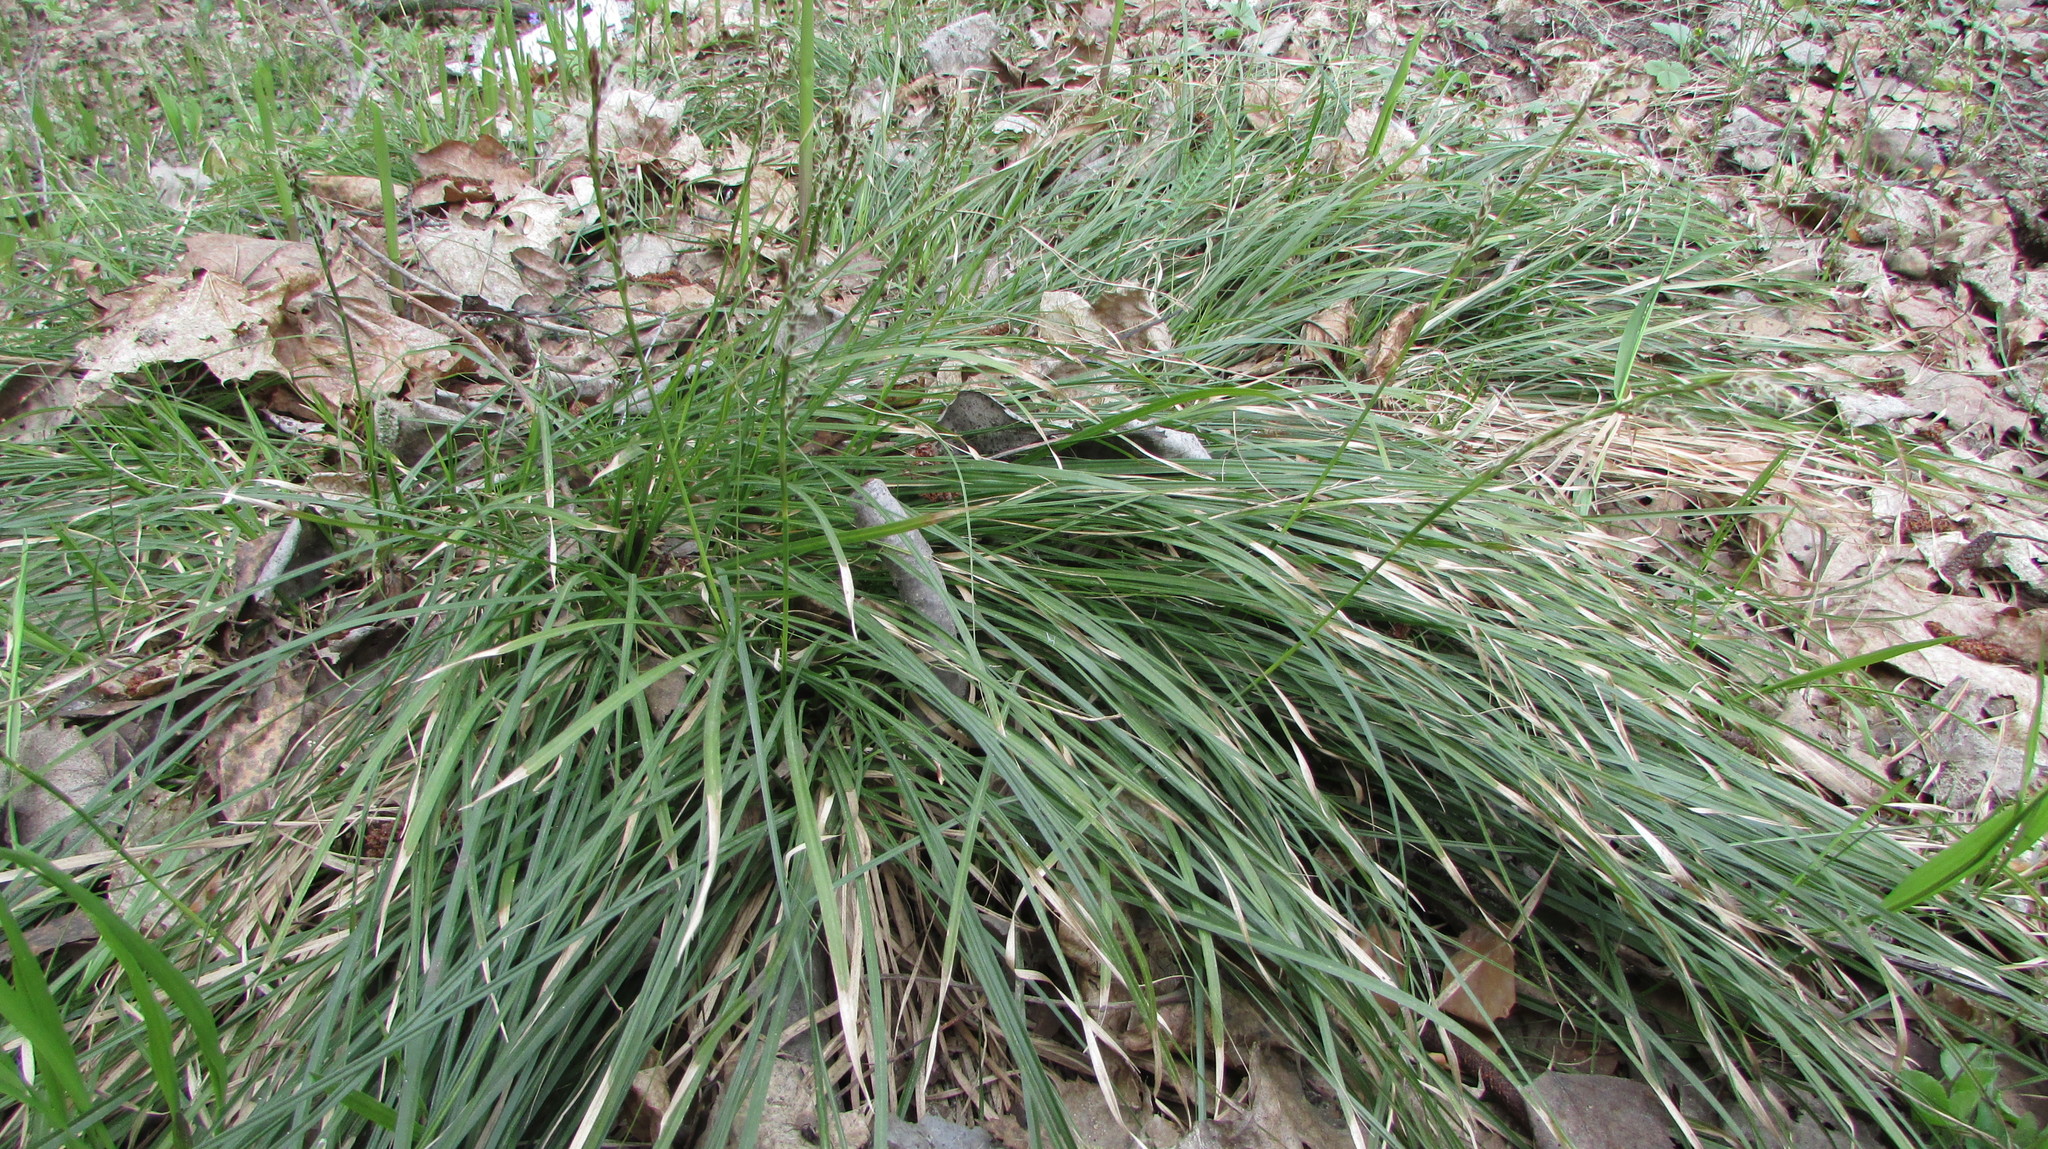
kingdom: Plantae
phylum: Tracheophyta
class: Liliopsida
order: Poales
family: Cyperaceae
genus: Carex
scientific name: Carex rhizina
